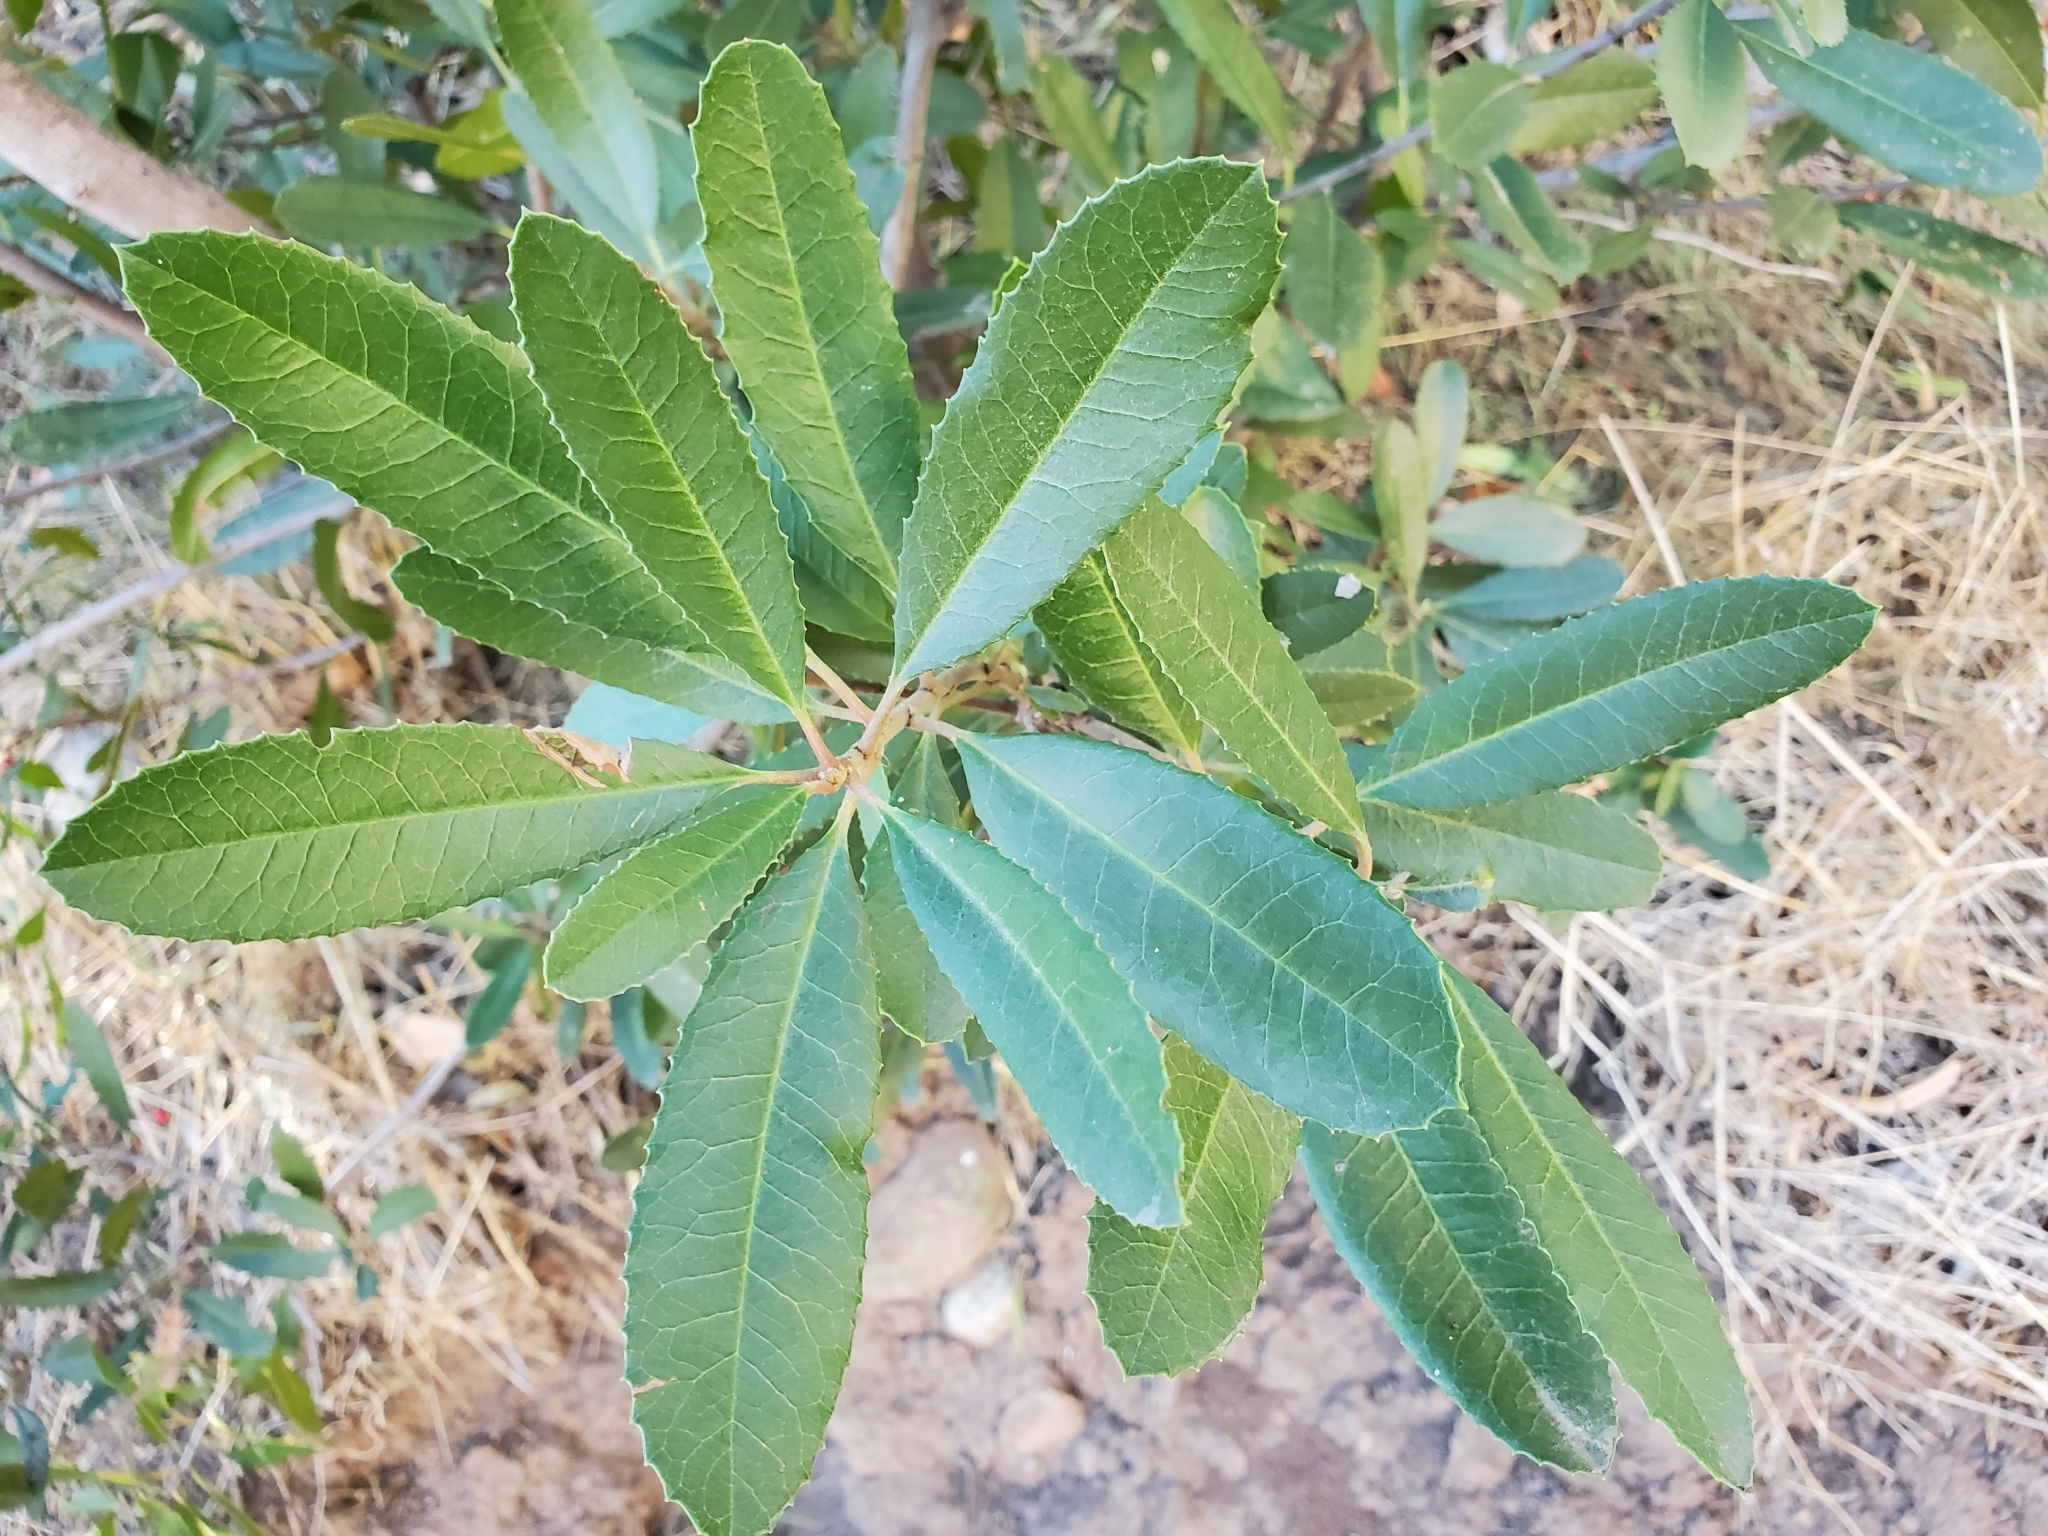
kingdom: Plantae
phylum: Tracheophyta
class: Magnoliopsida
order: Rosales
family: Rosaceae
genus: Heteromeles
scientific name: Heteromeles arbutifolia
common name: California-holly
